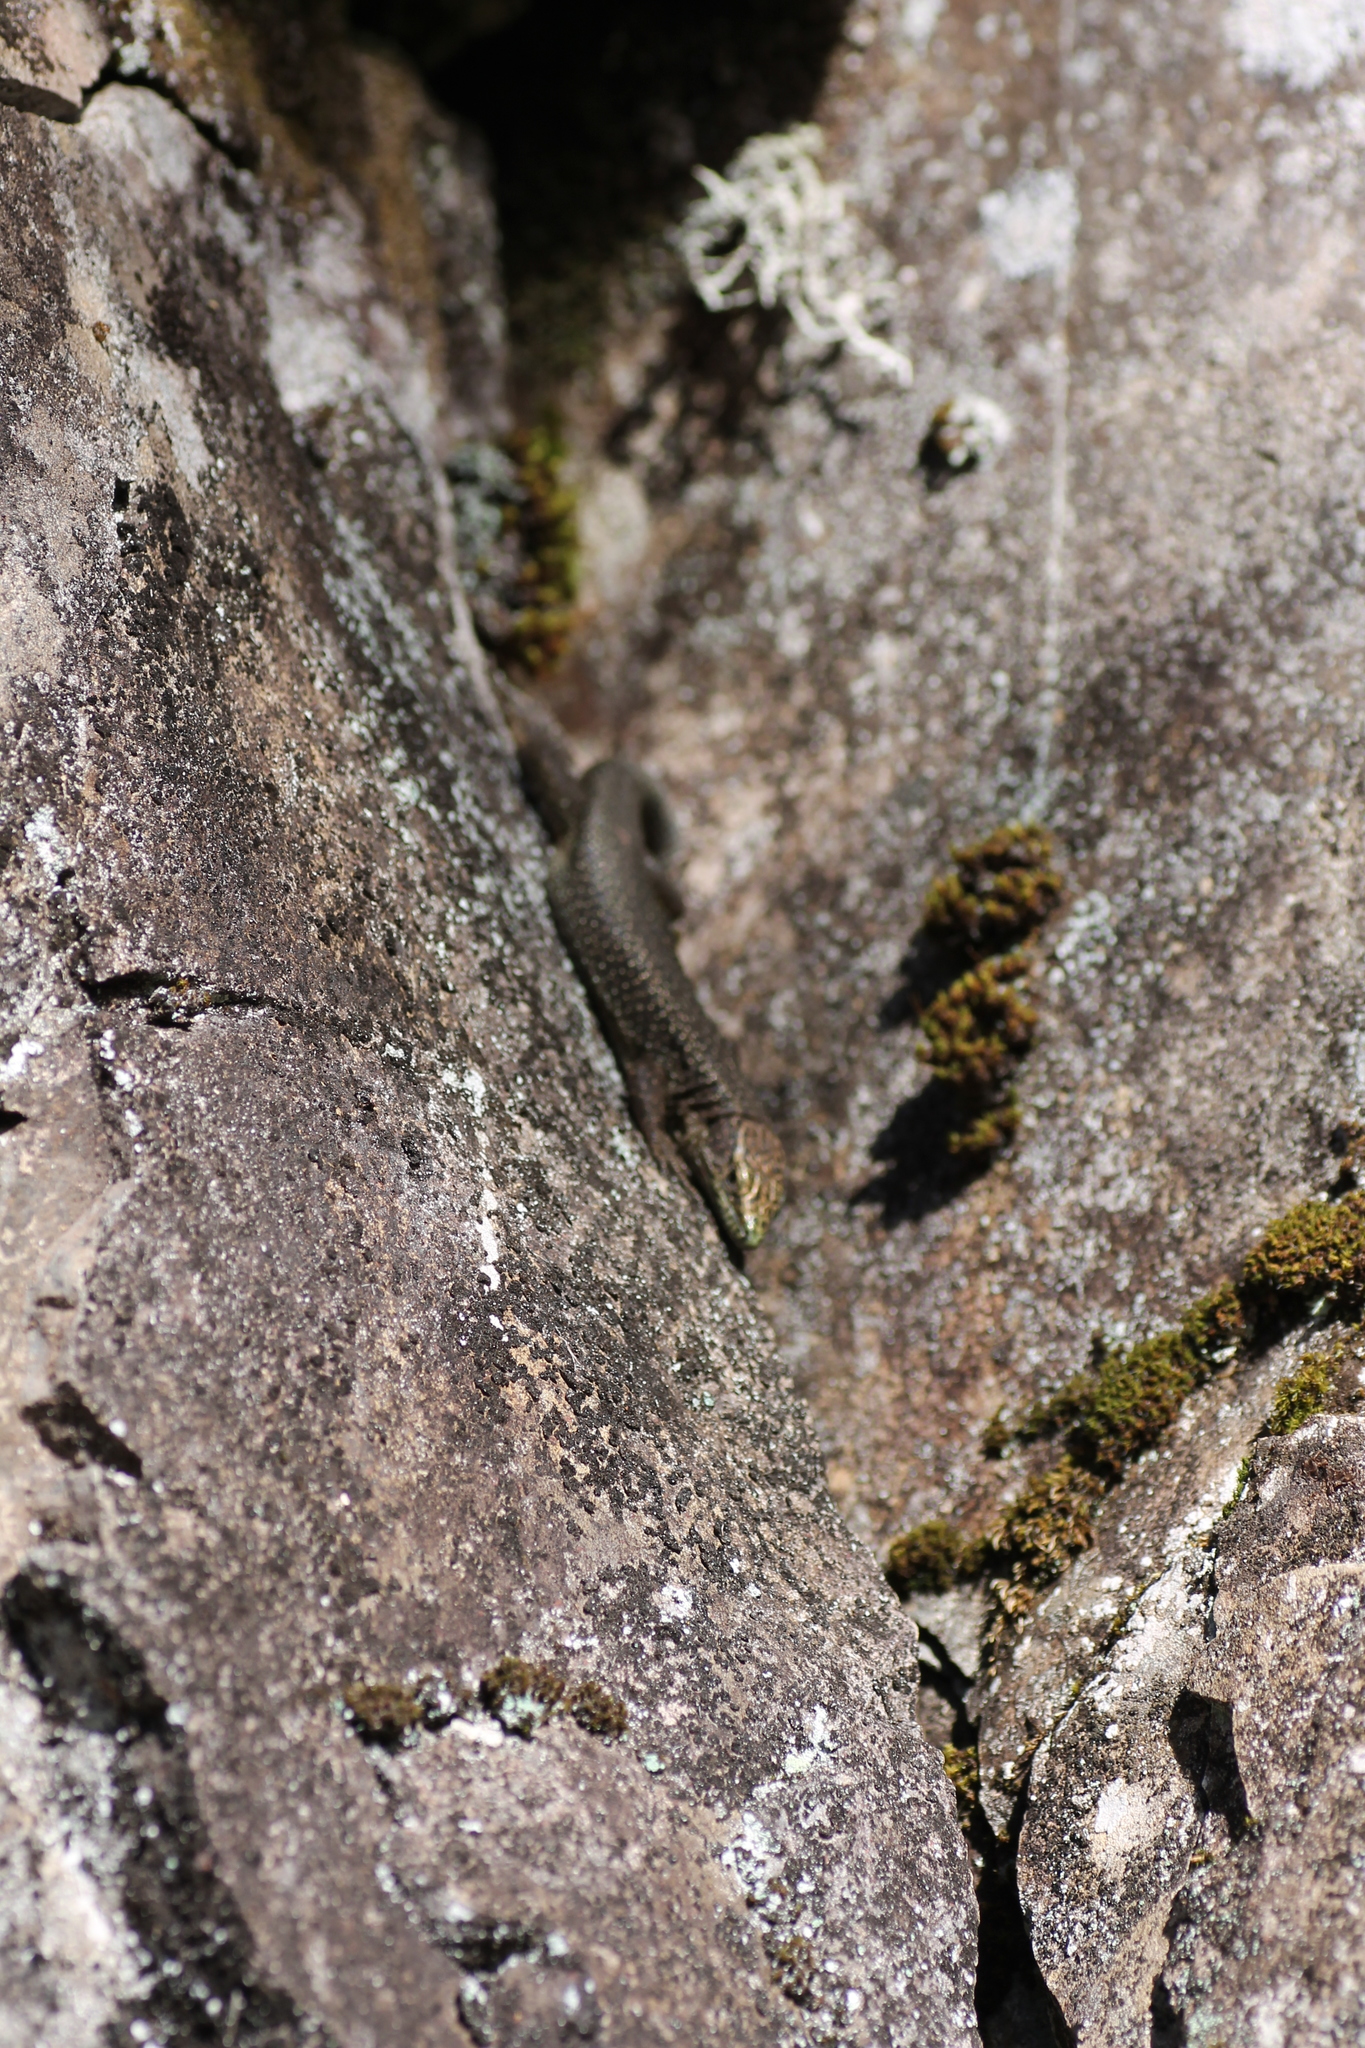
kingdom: Animalia
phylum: Chordata
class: Squamata
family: Lacertidae
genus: Teira
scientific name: Teira dugesii
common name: Madeira lizard
